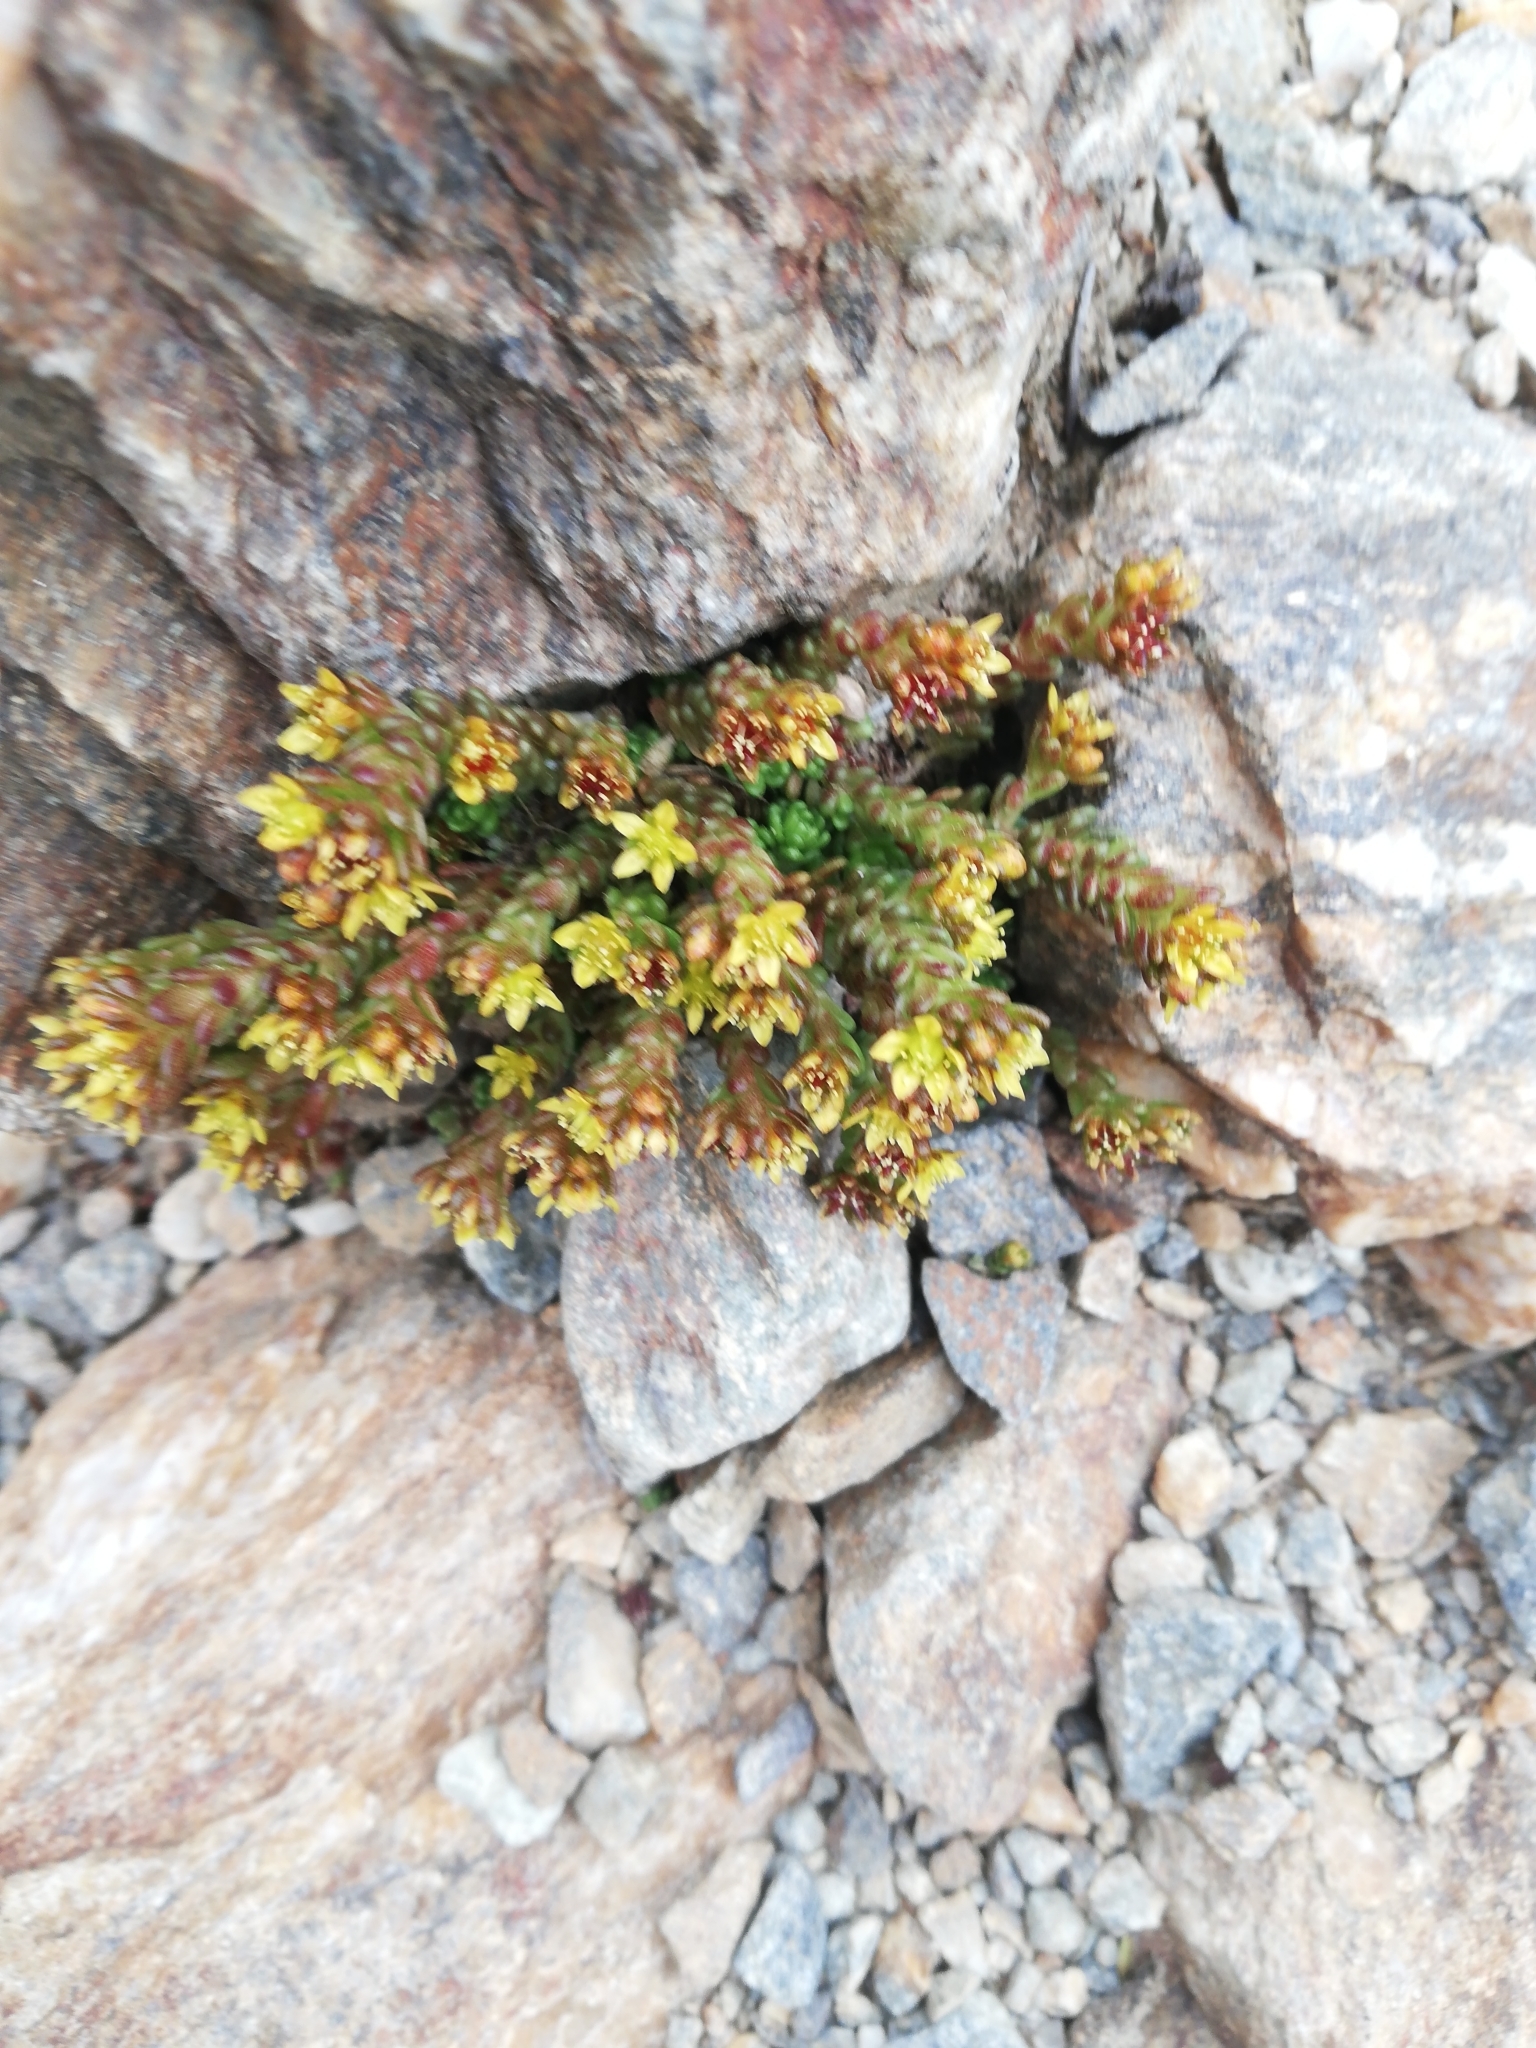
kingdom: Plantae
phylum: Tracheophyta
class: Magnoliopsida
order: Saxifragales
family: Crassulaceae
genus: Sedum
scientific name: Sedum alpestre
